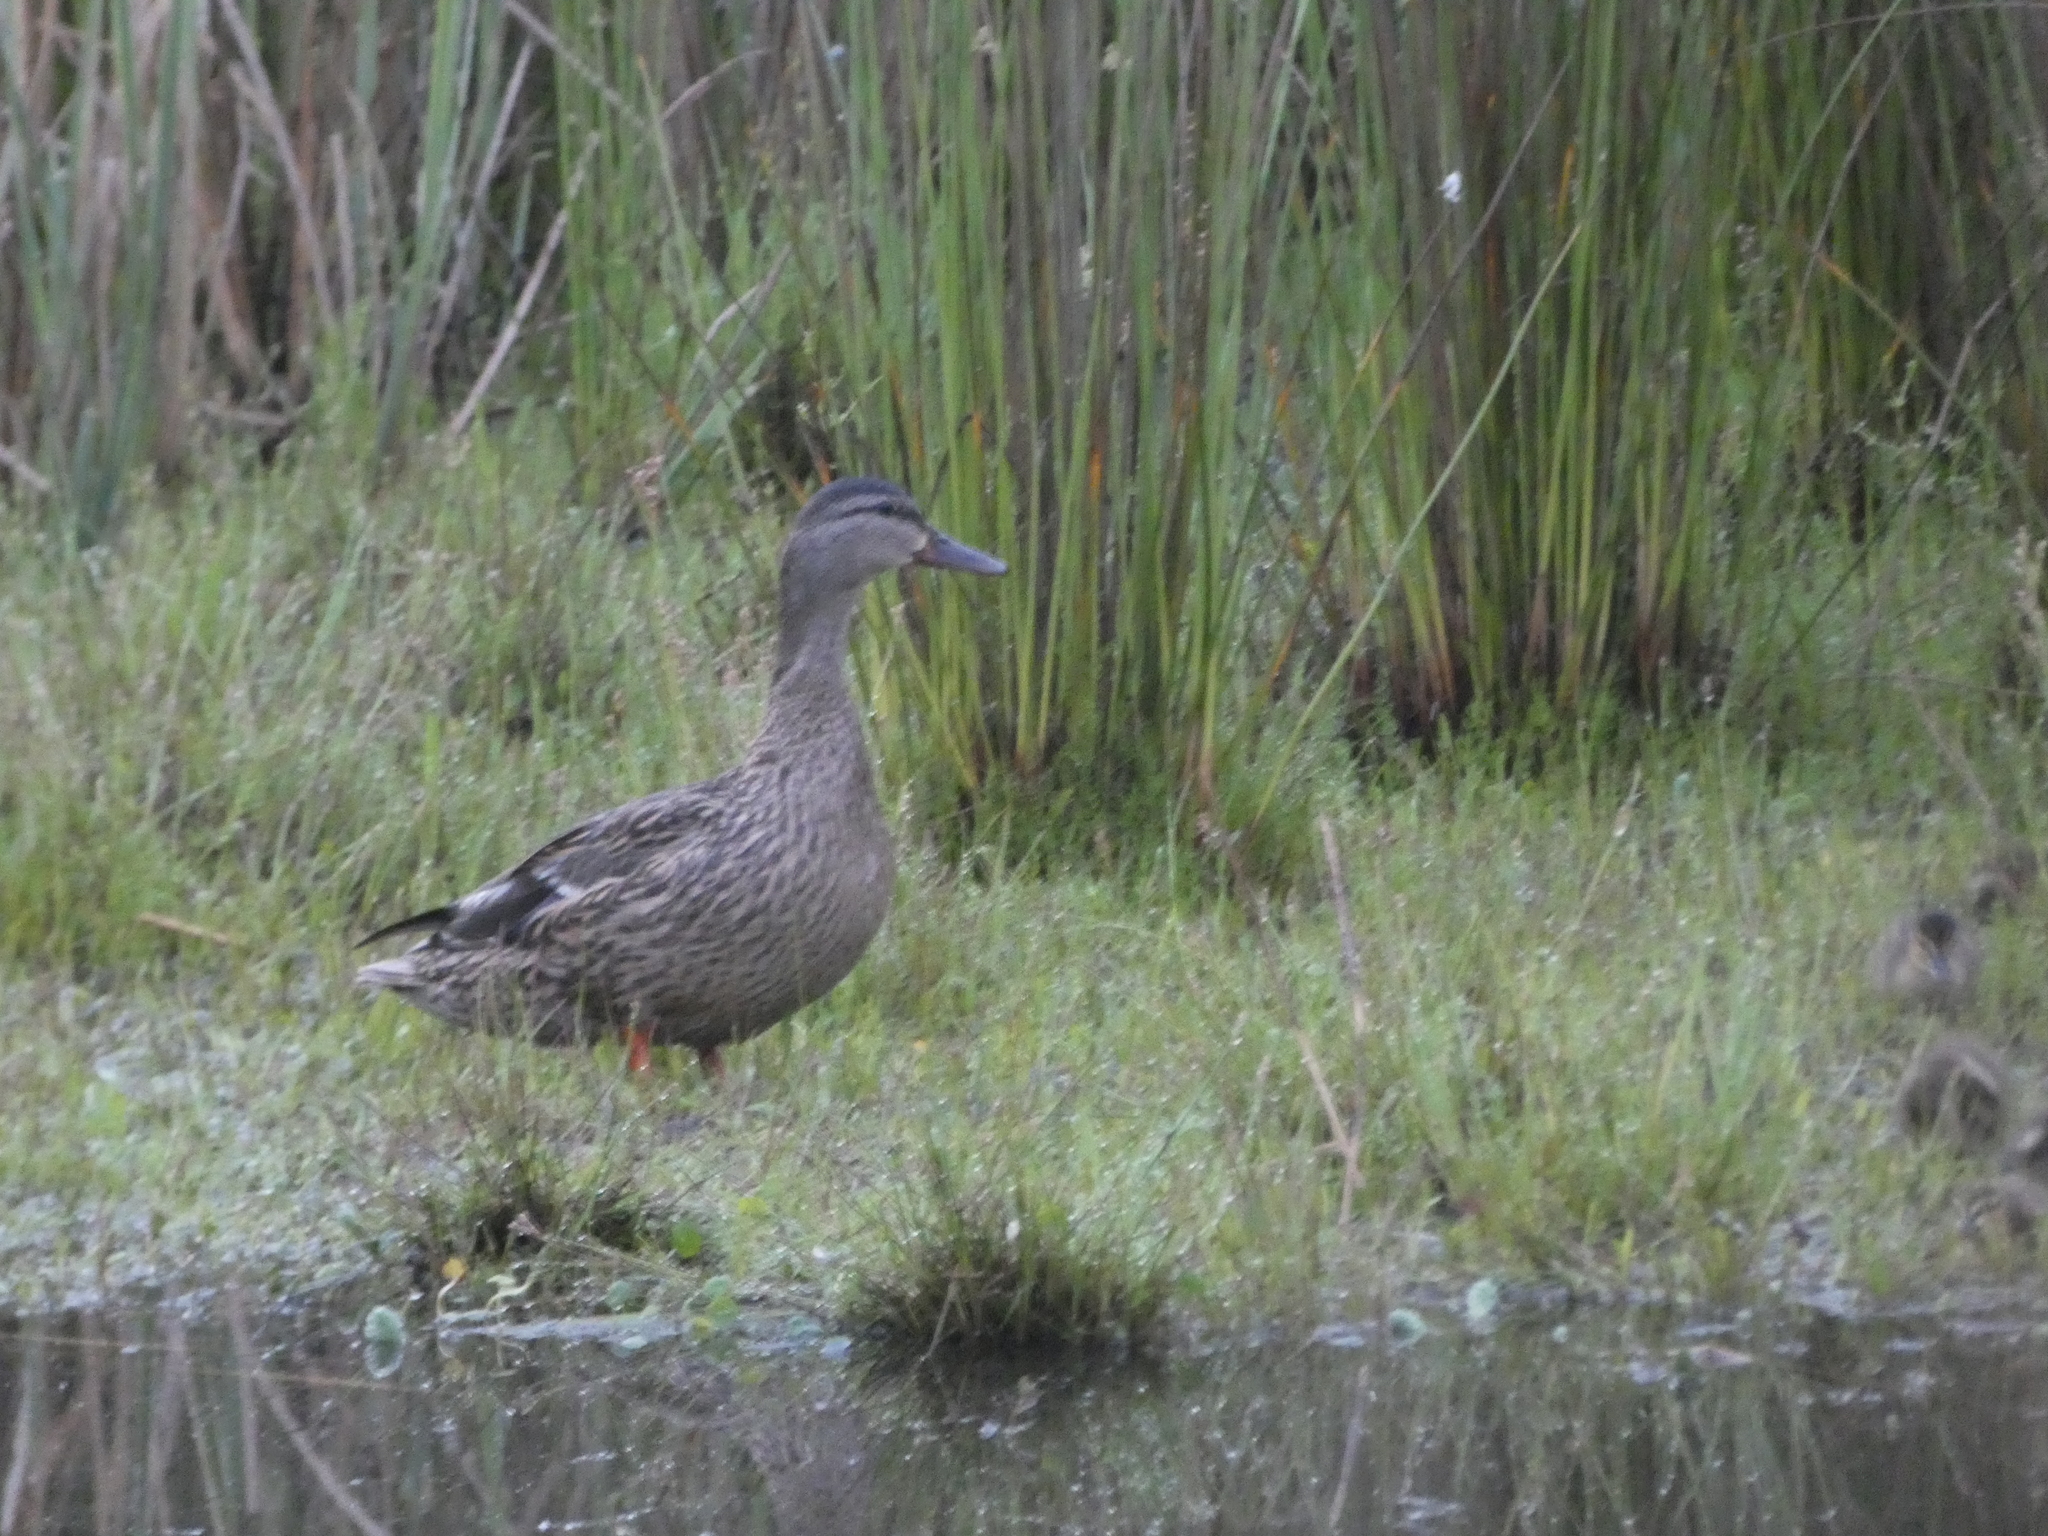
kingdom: Animalia
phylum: Chordata
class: Aves
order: Anseriformes
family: Anatidae
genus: Anas
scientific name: Anas platyrhynchos
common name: Mallard
